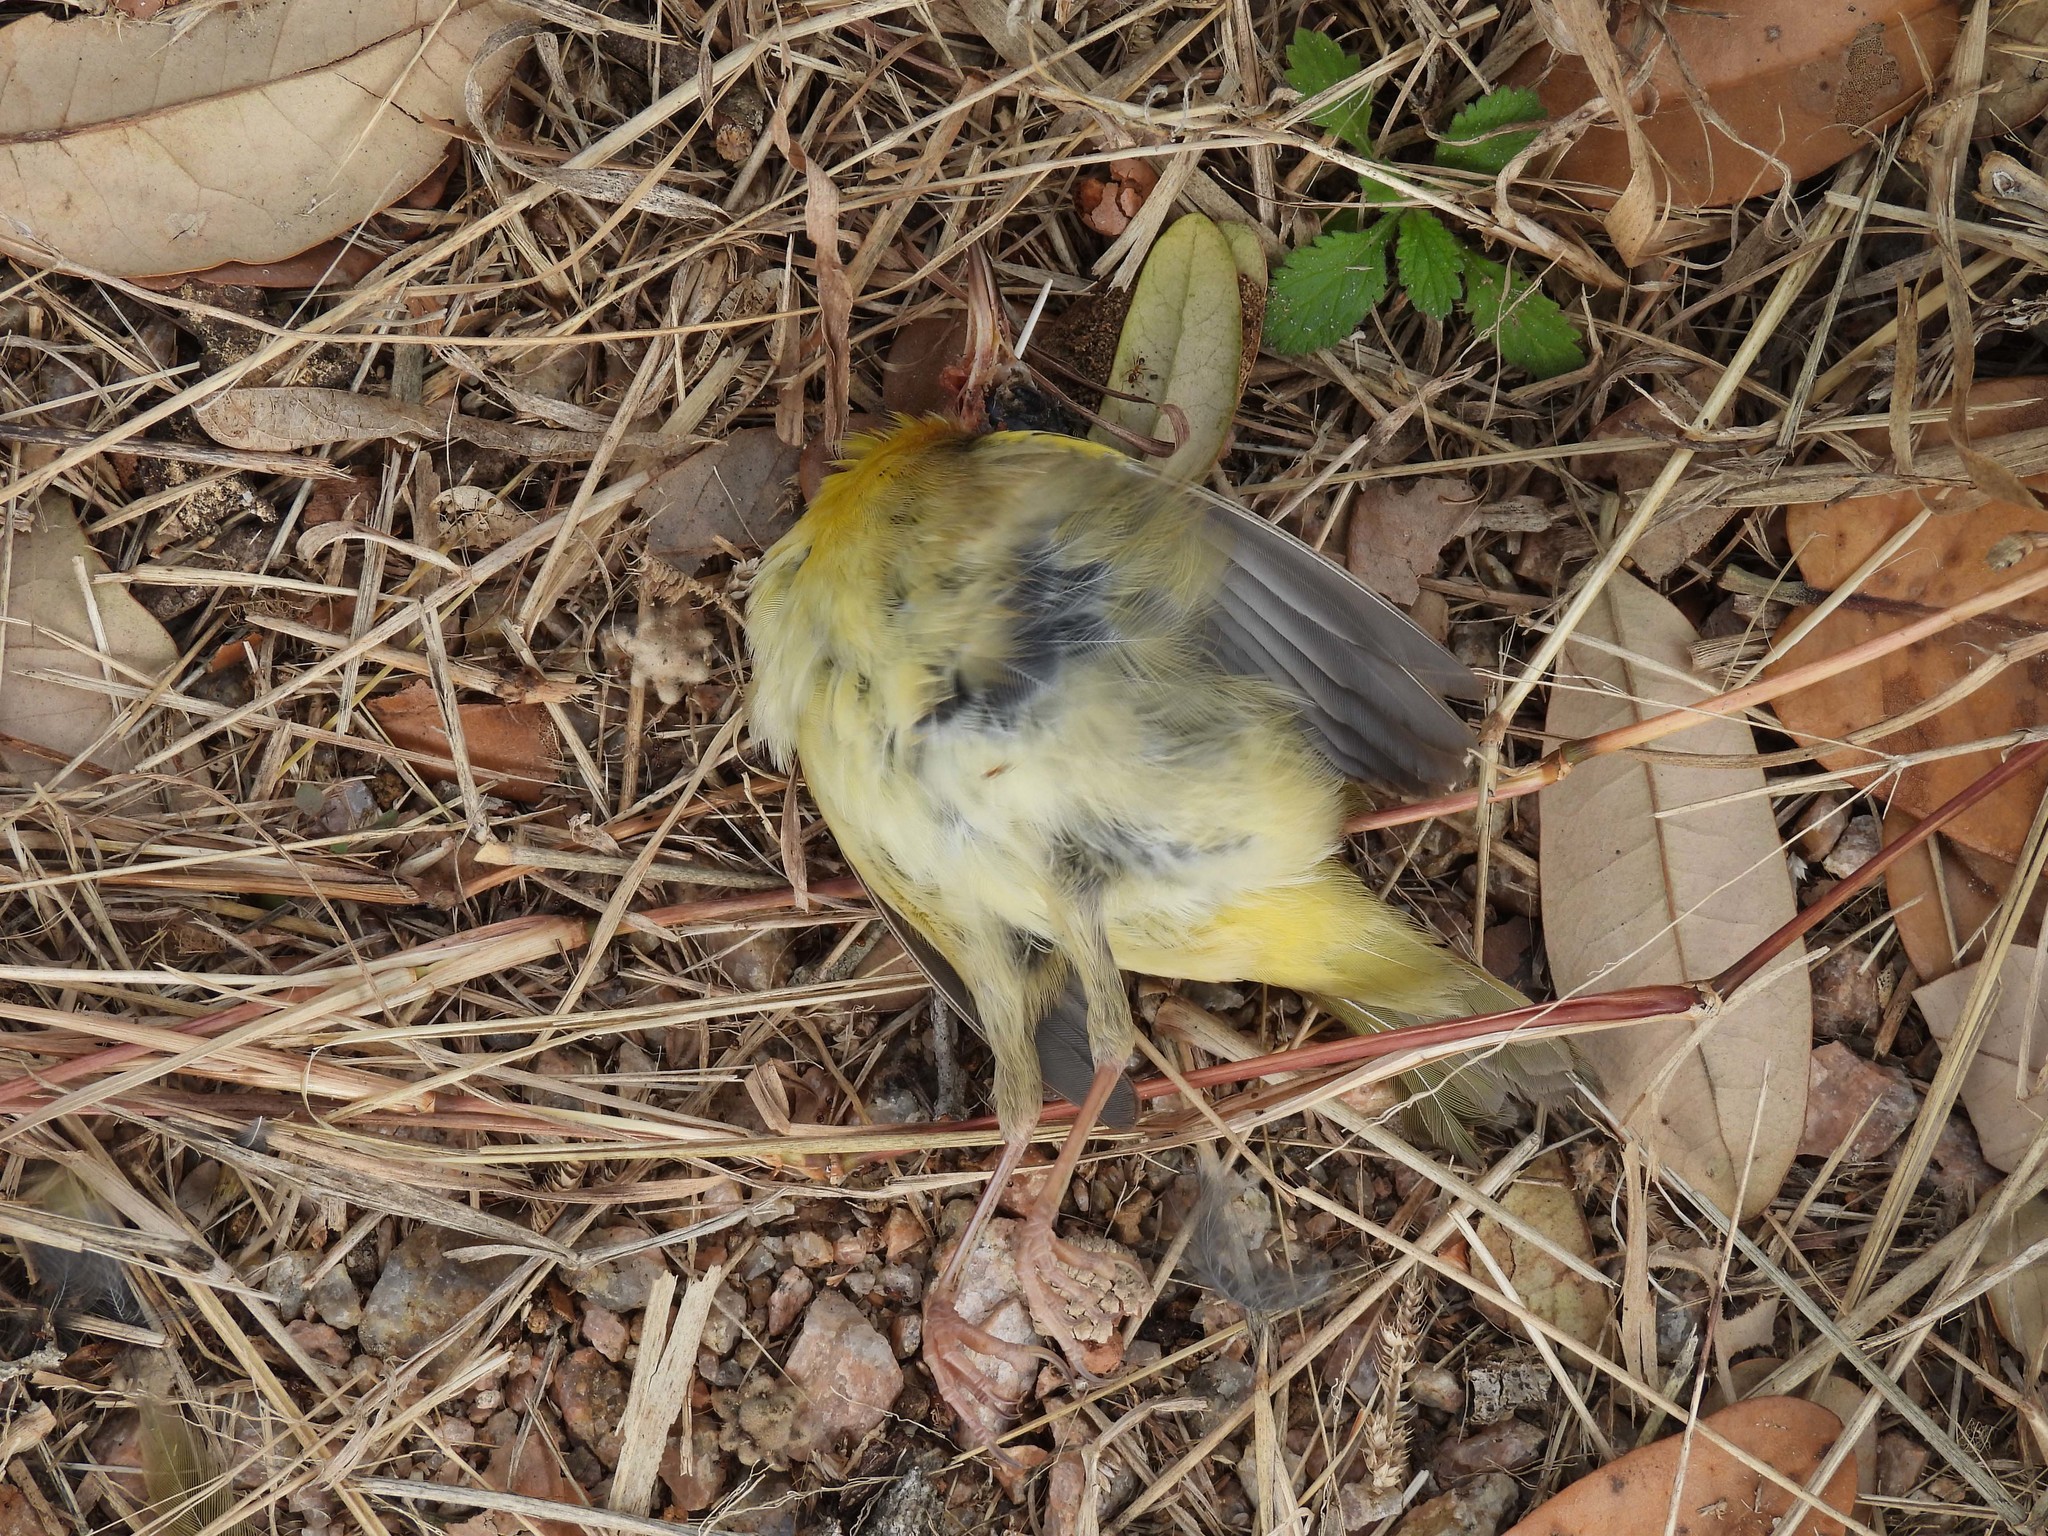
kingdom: Animalia
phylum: Chordata
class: Aves
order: Passeriformes
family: Parulidae
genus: Geothlypis
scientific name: Geothlypis trichas
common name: Common yellowthroat
